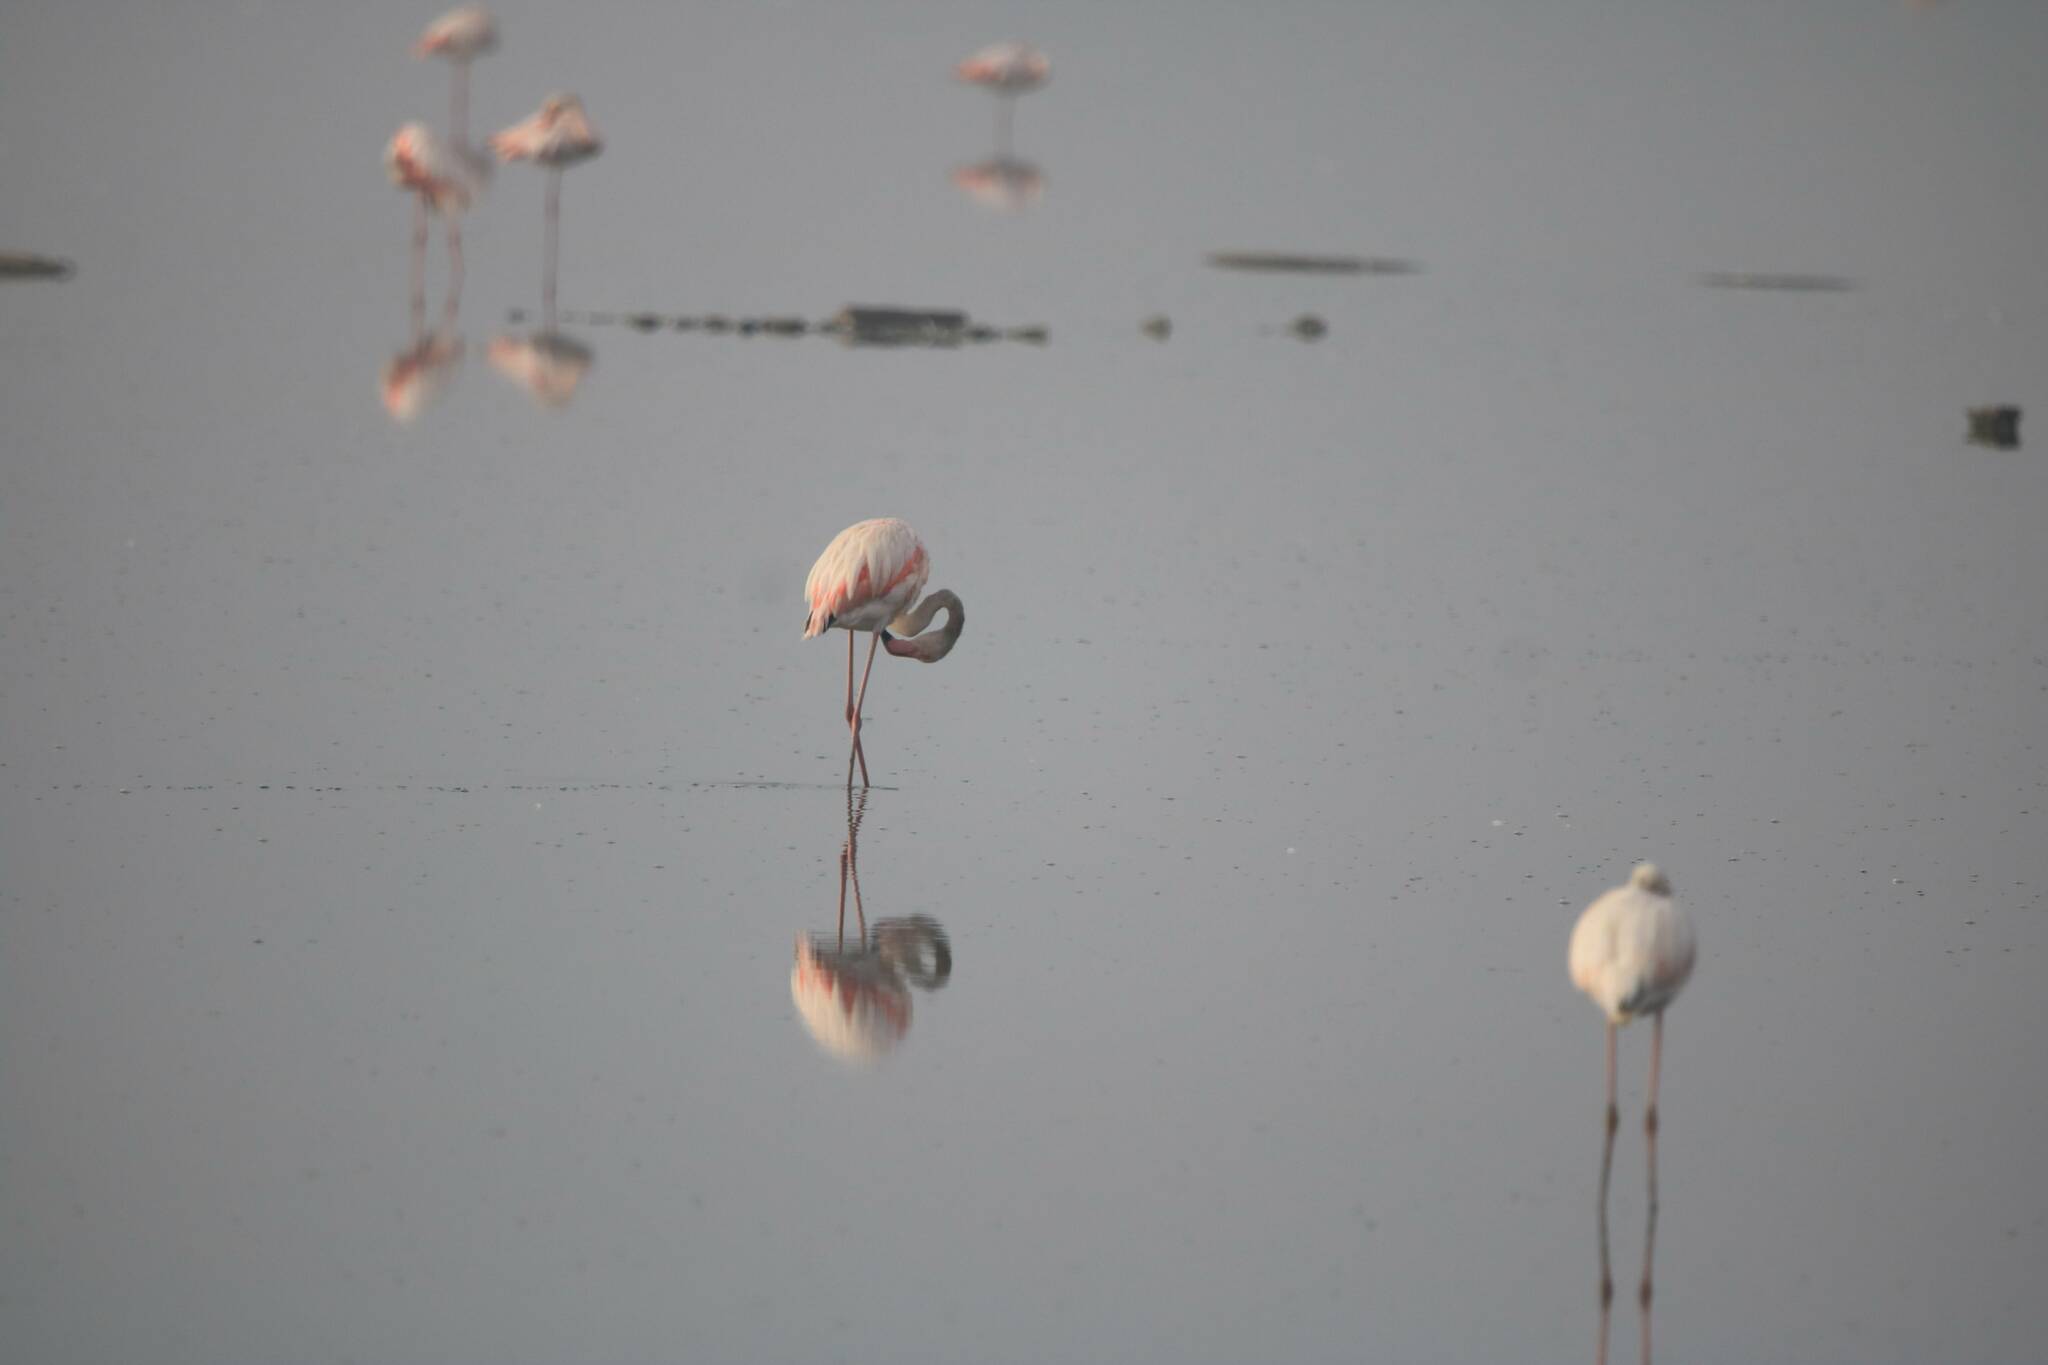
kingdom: Animalia
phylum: Chordata
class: Aves
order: Phoenicopteriformes
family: Phoenicopteridae
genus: Phoenicopterus
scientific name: Phoenicopterus roseus
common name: Greater flamingo
